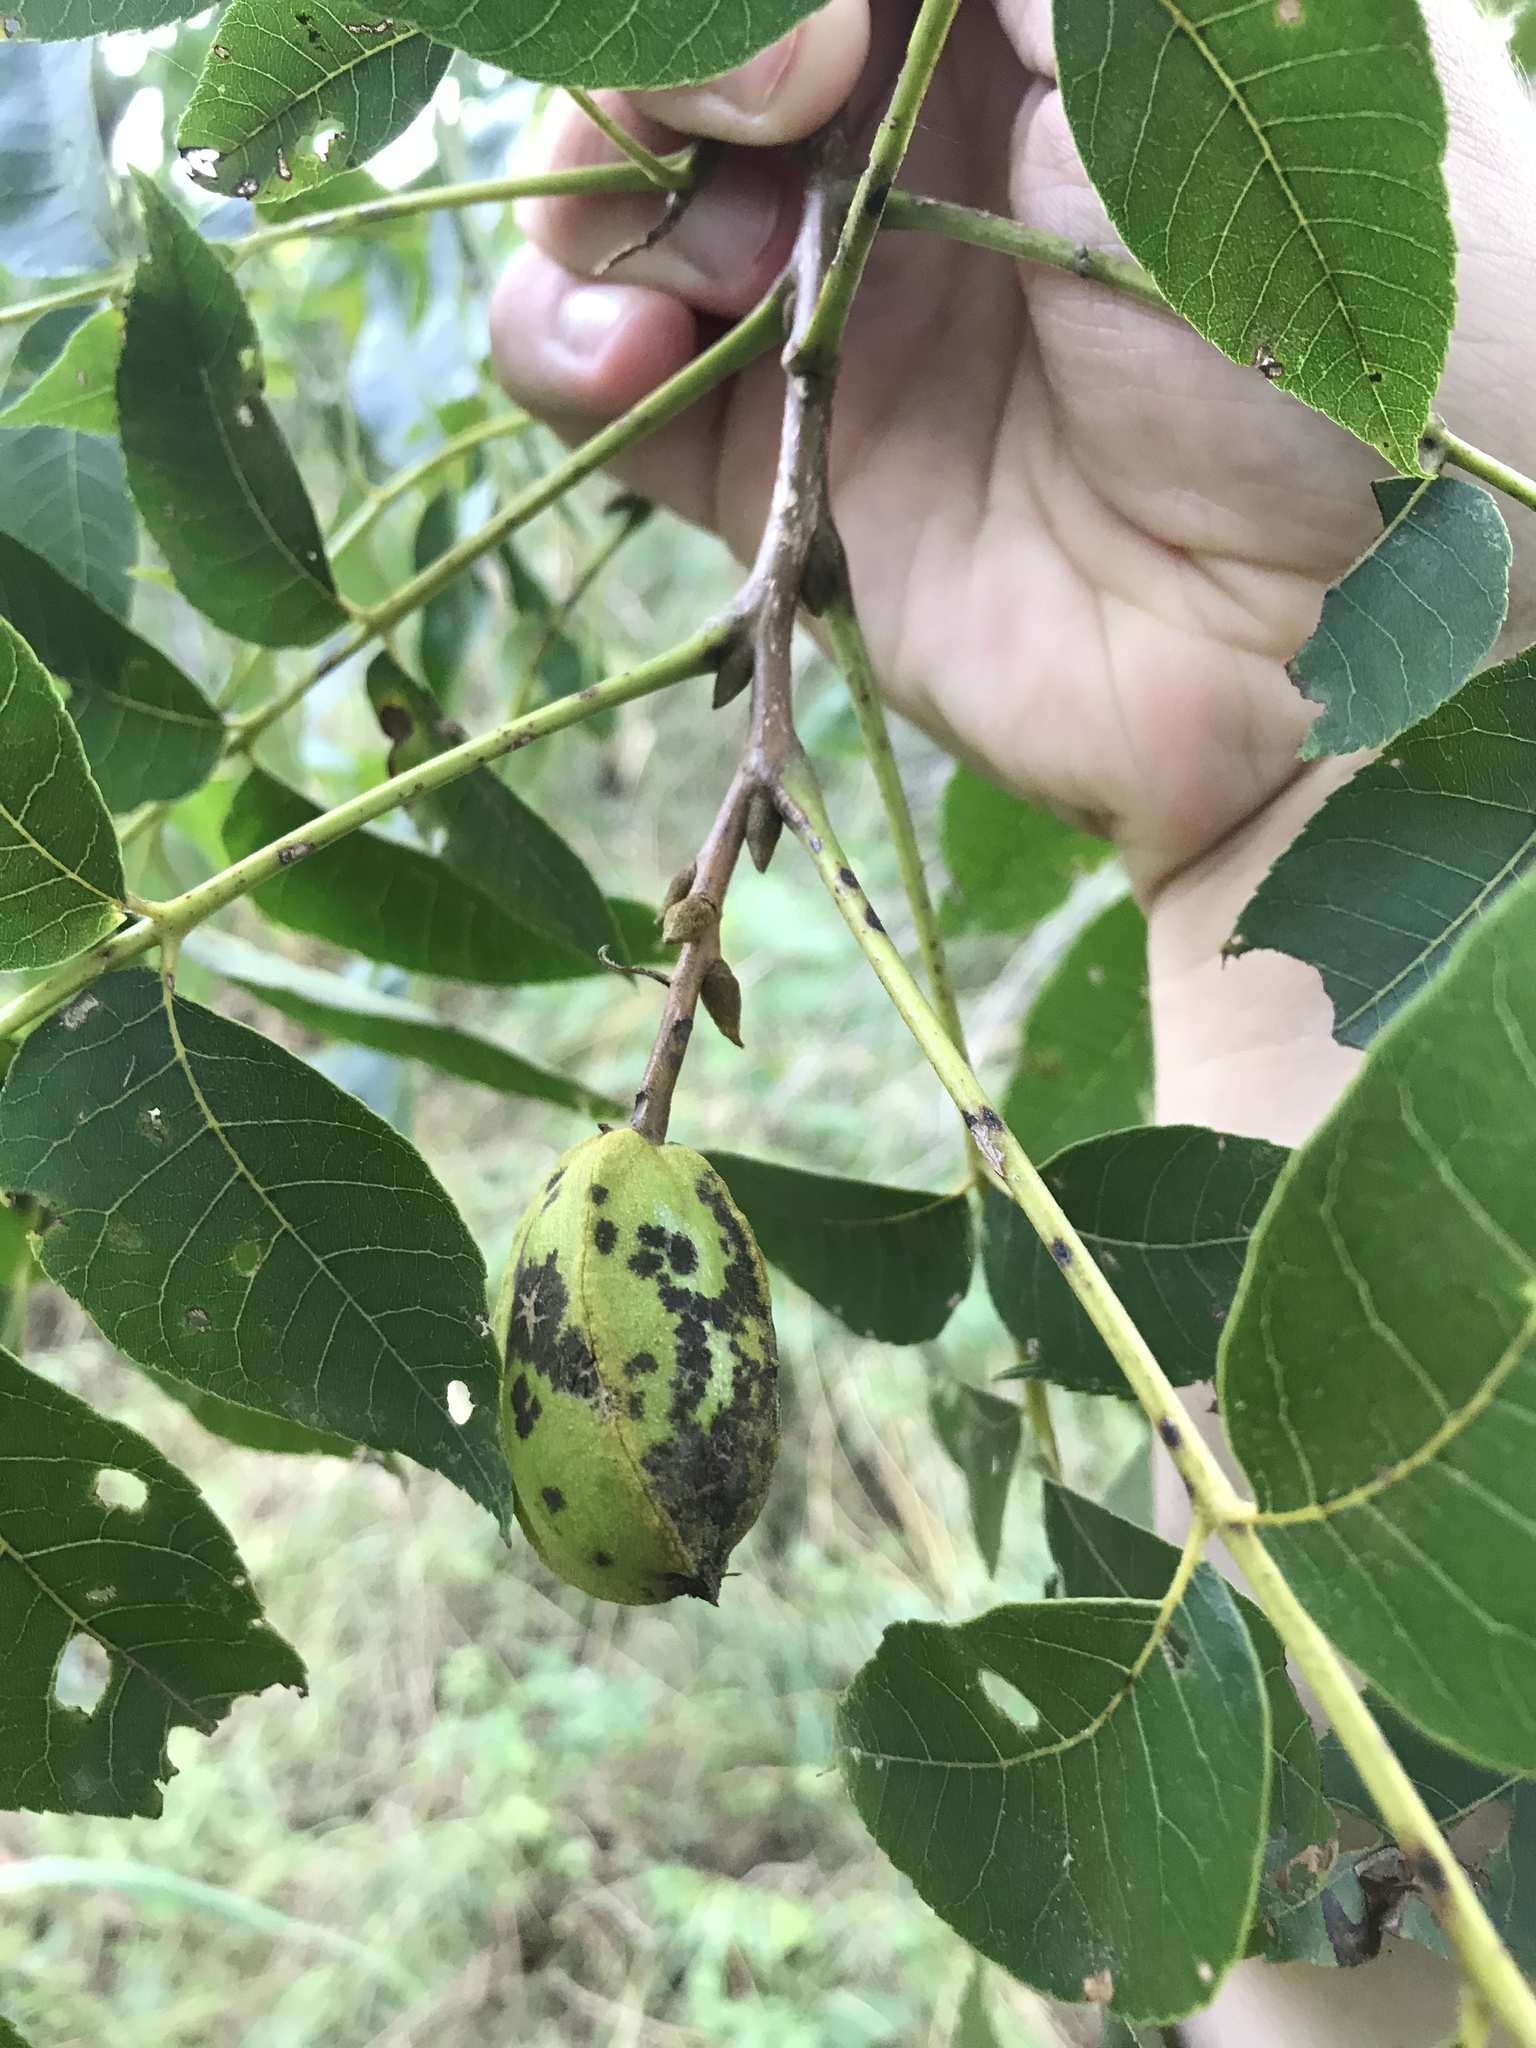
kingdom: Plantae
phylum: Tracheophyta
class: Magnoliopsida
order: Fagales
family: Juglandaceae
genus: Carya
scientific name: Carya illinoinensis
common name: Pecan
